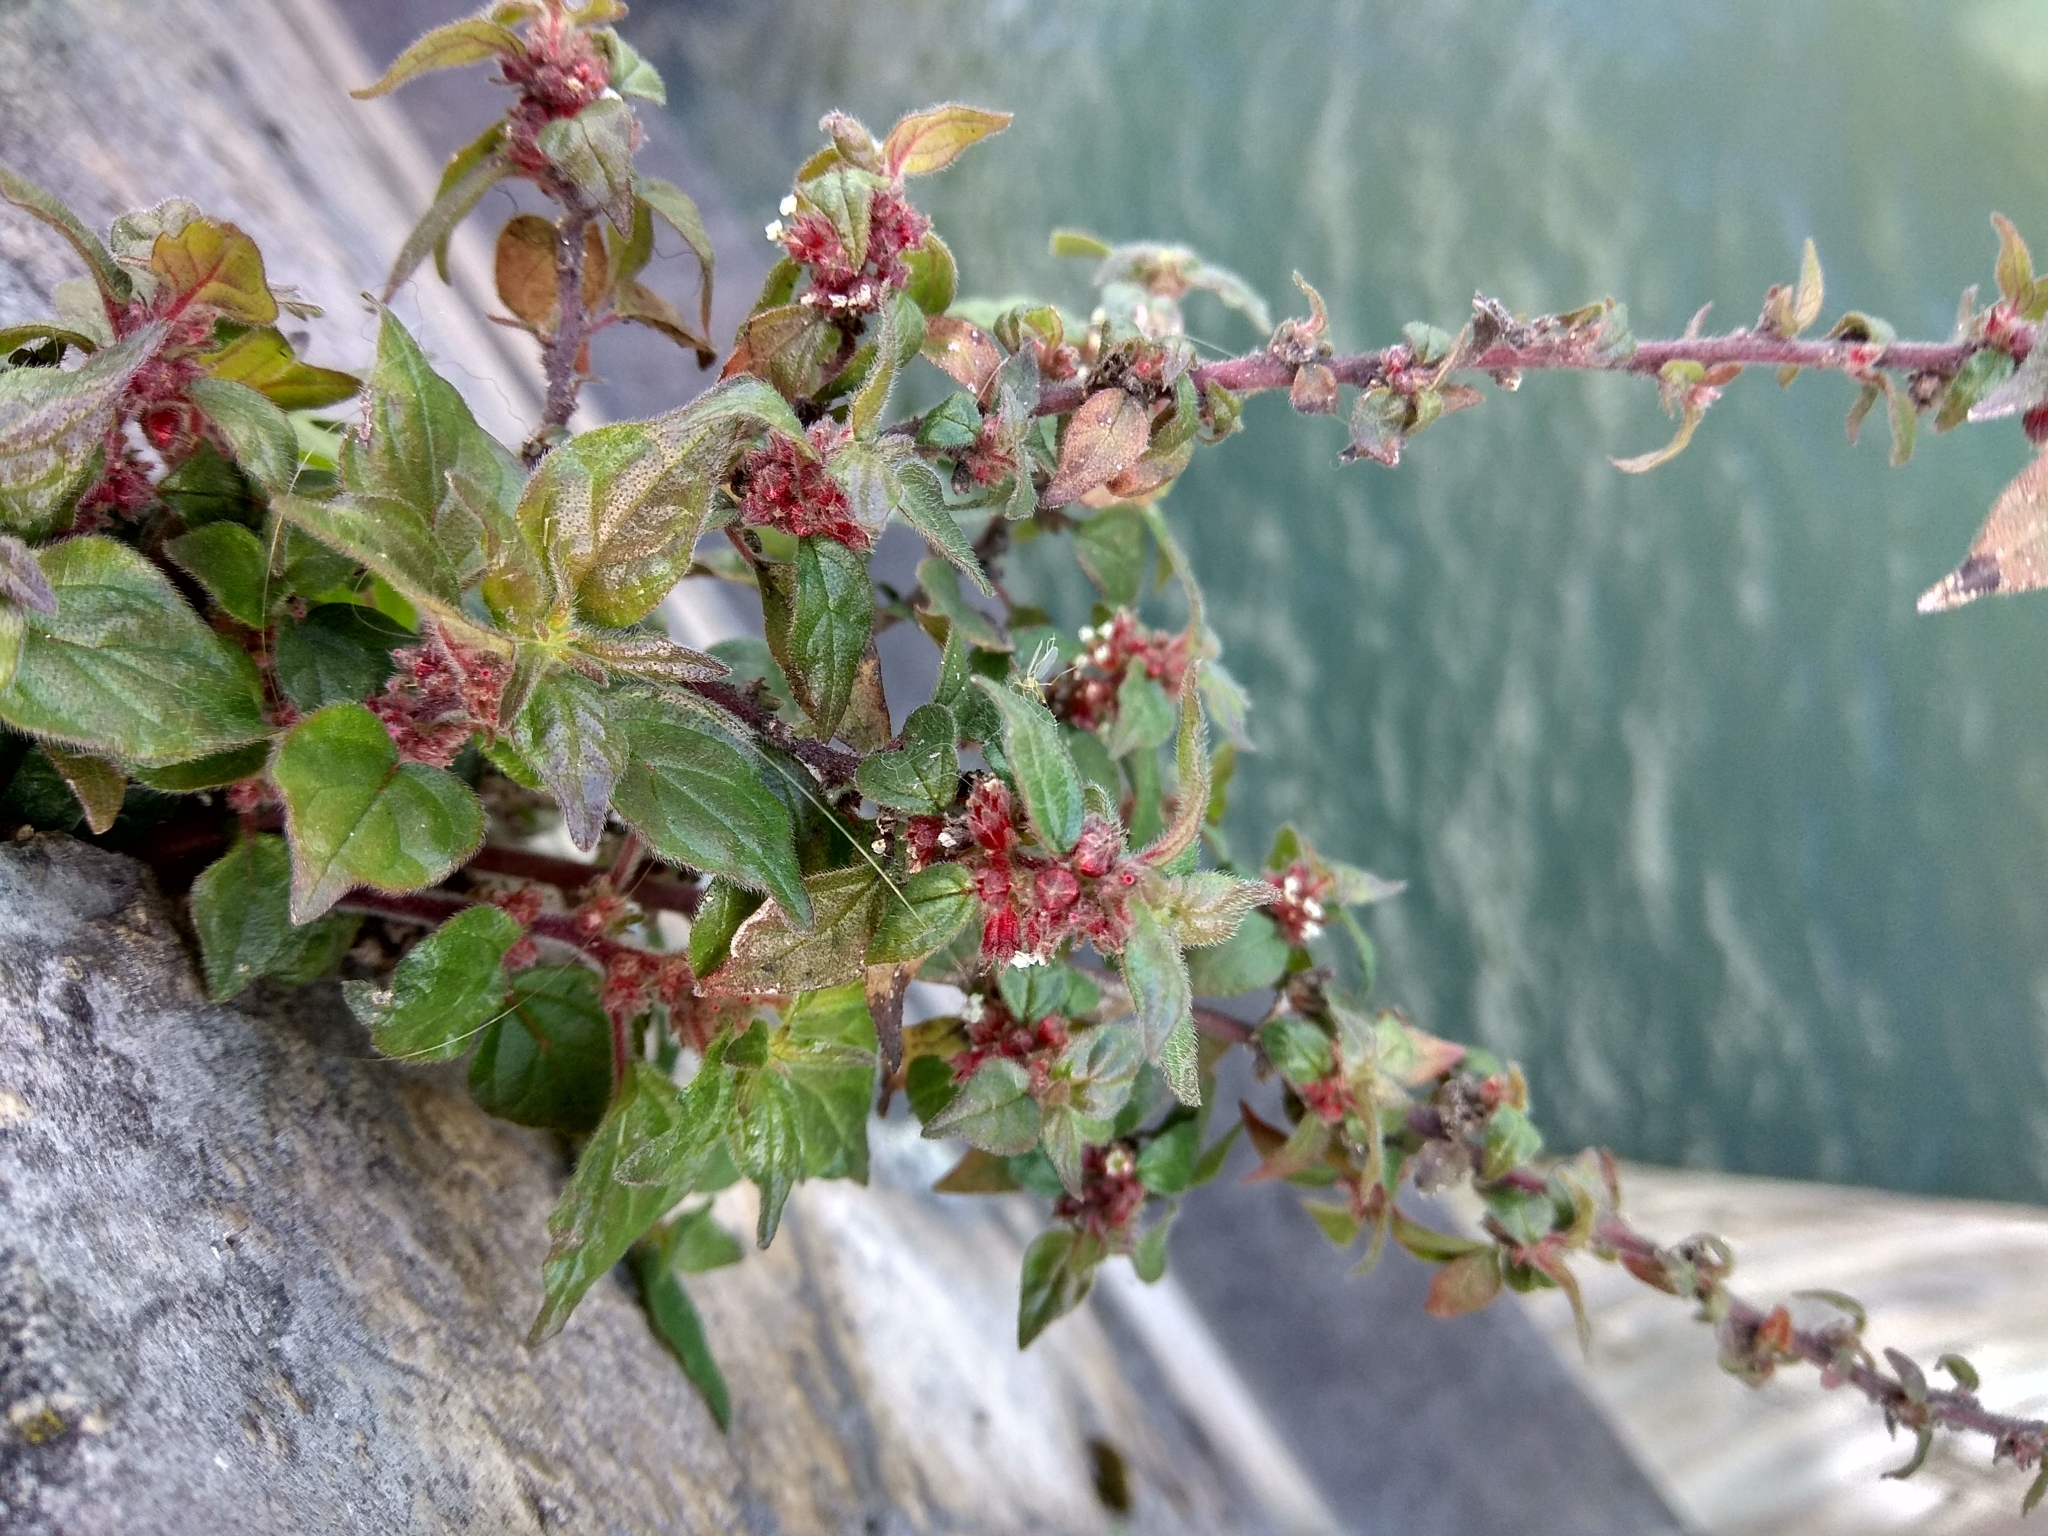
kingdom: Plantae
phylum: Tracheophyta
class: Magnoliopsida
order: Rosales
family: Urticaceae
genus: Parietaria
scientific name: Parietaria judaica
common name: Pellitory-of-the-wall
